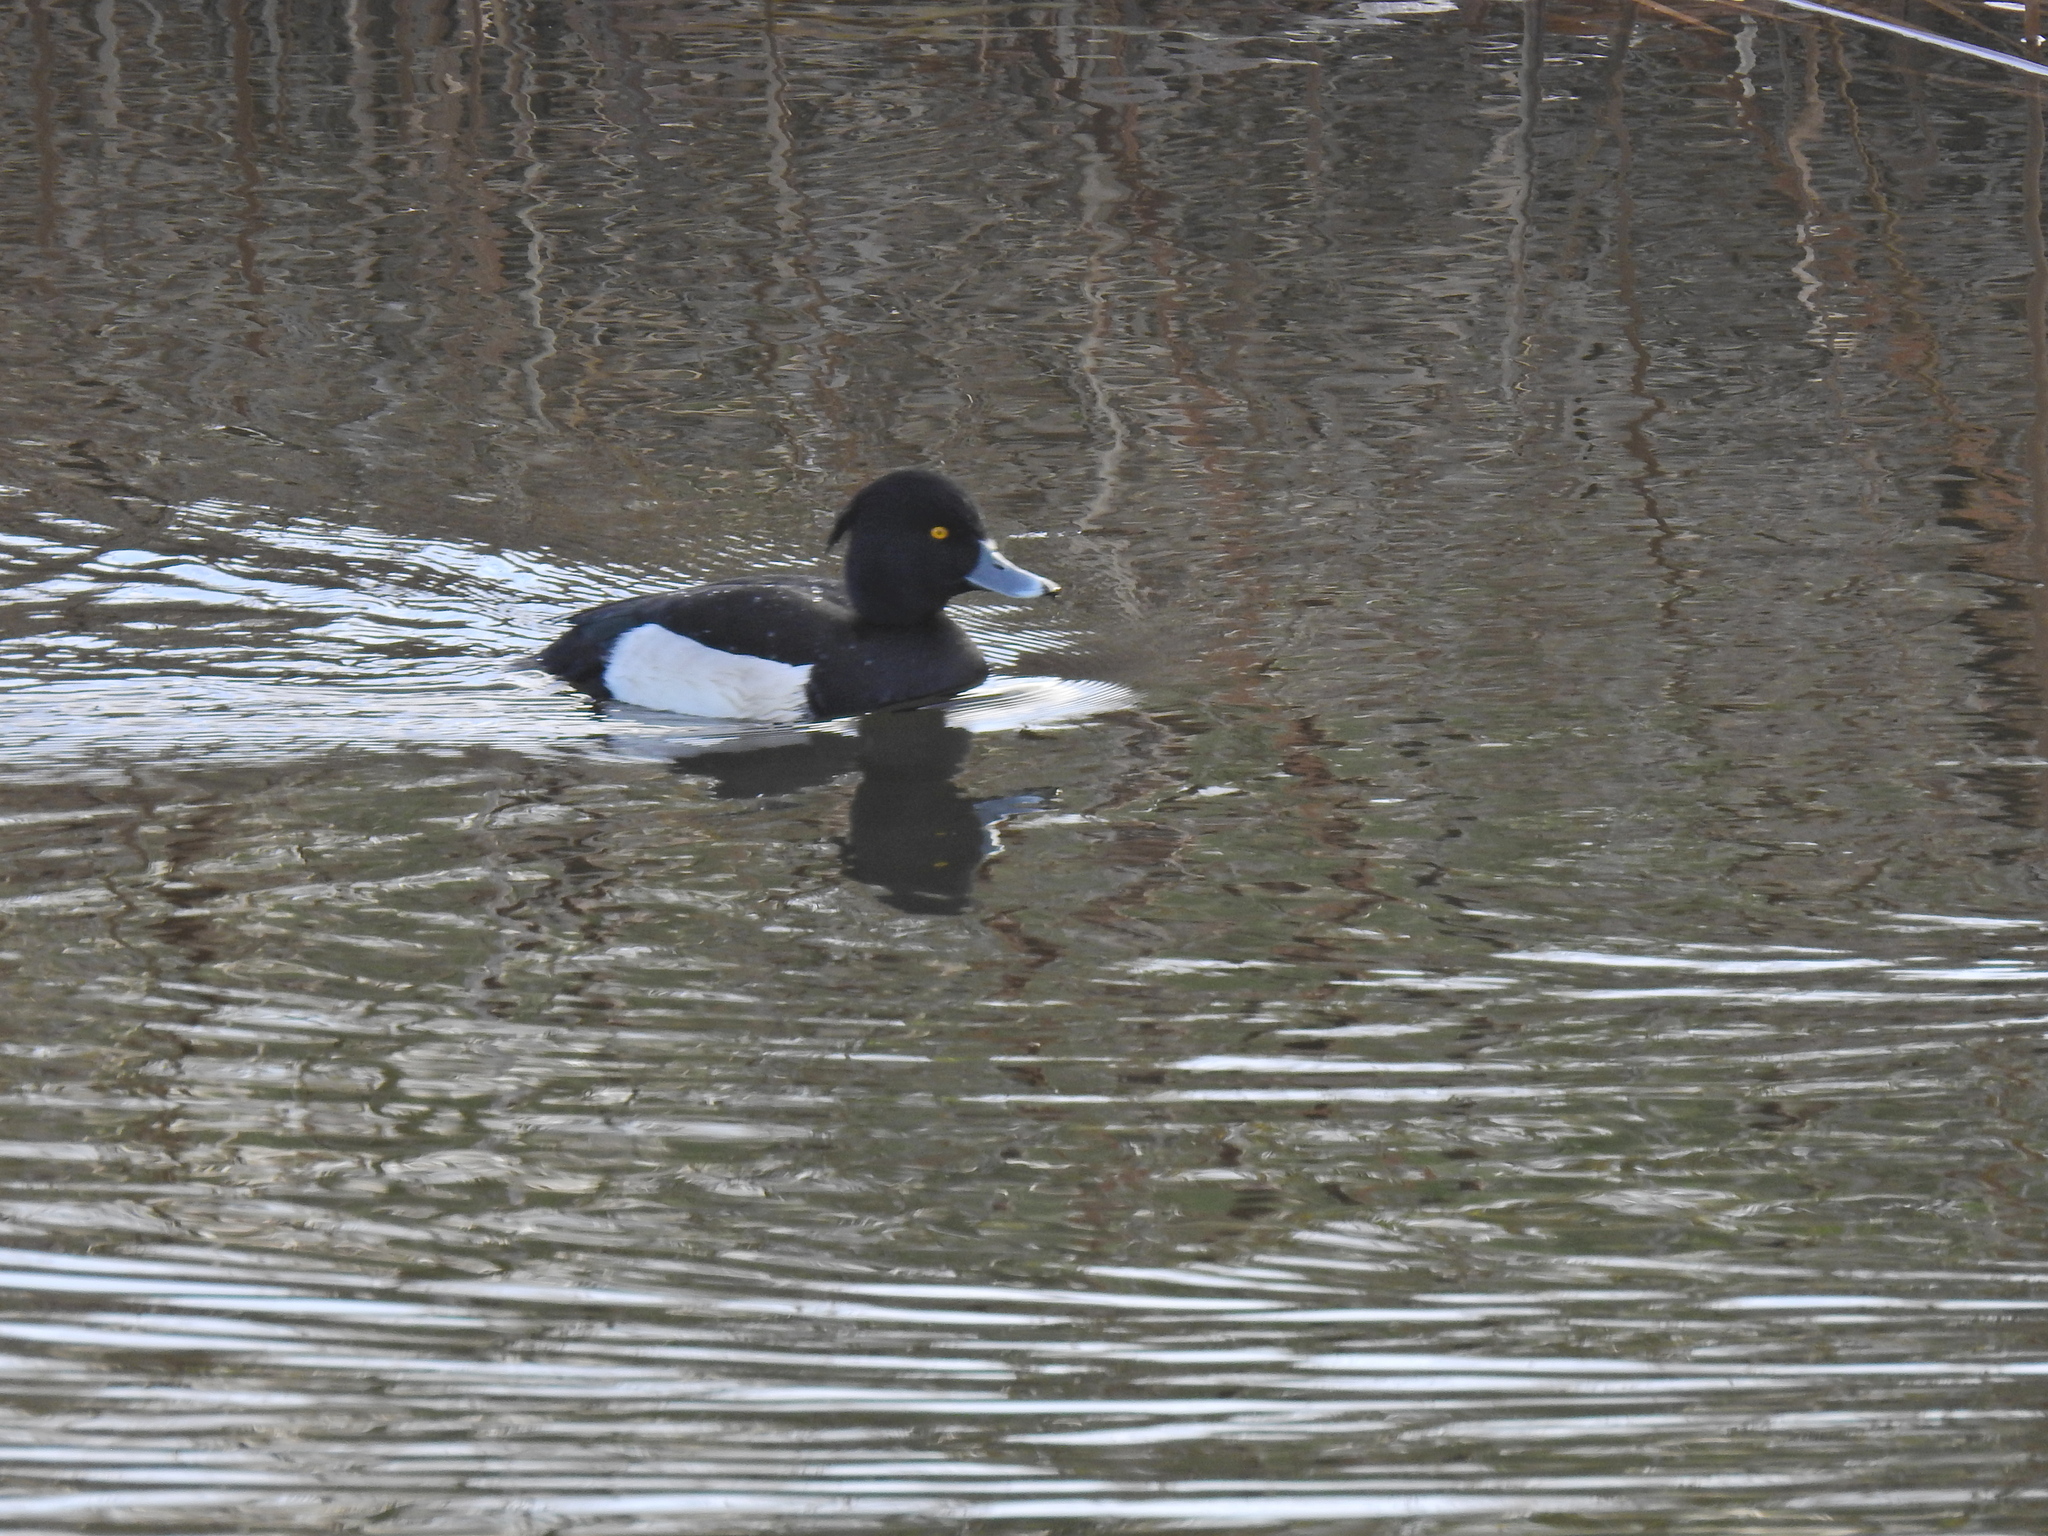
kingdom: Animalia
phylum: Chordata
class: Aves
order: Anseriformes
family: Anatidae
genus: Aythya
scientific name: Aythya fuligula
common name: Tufted duck
